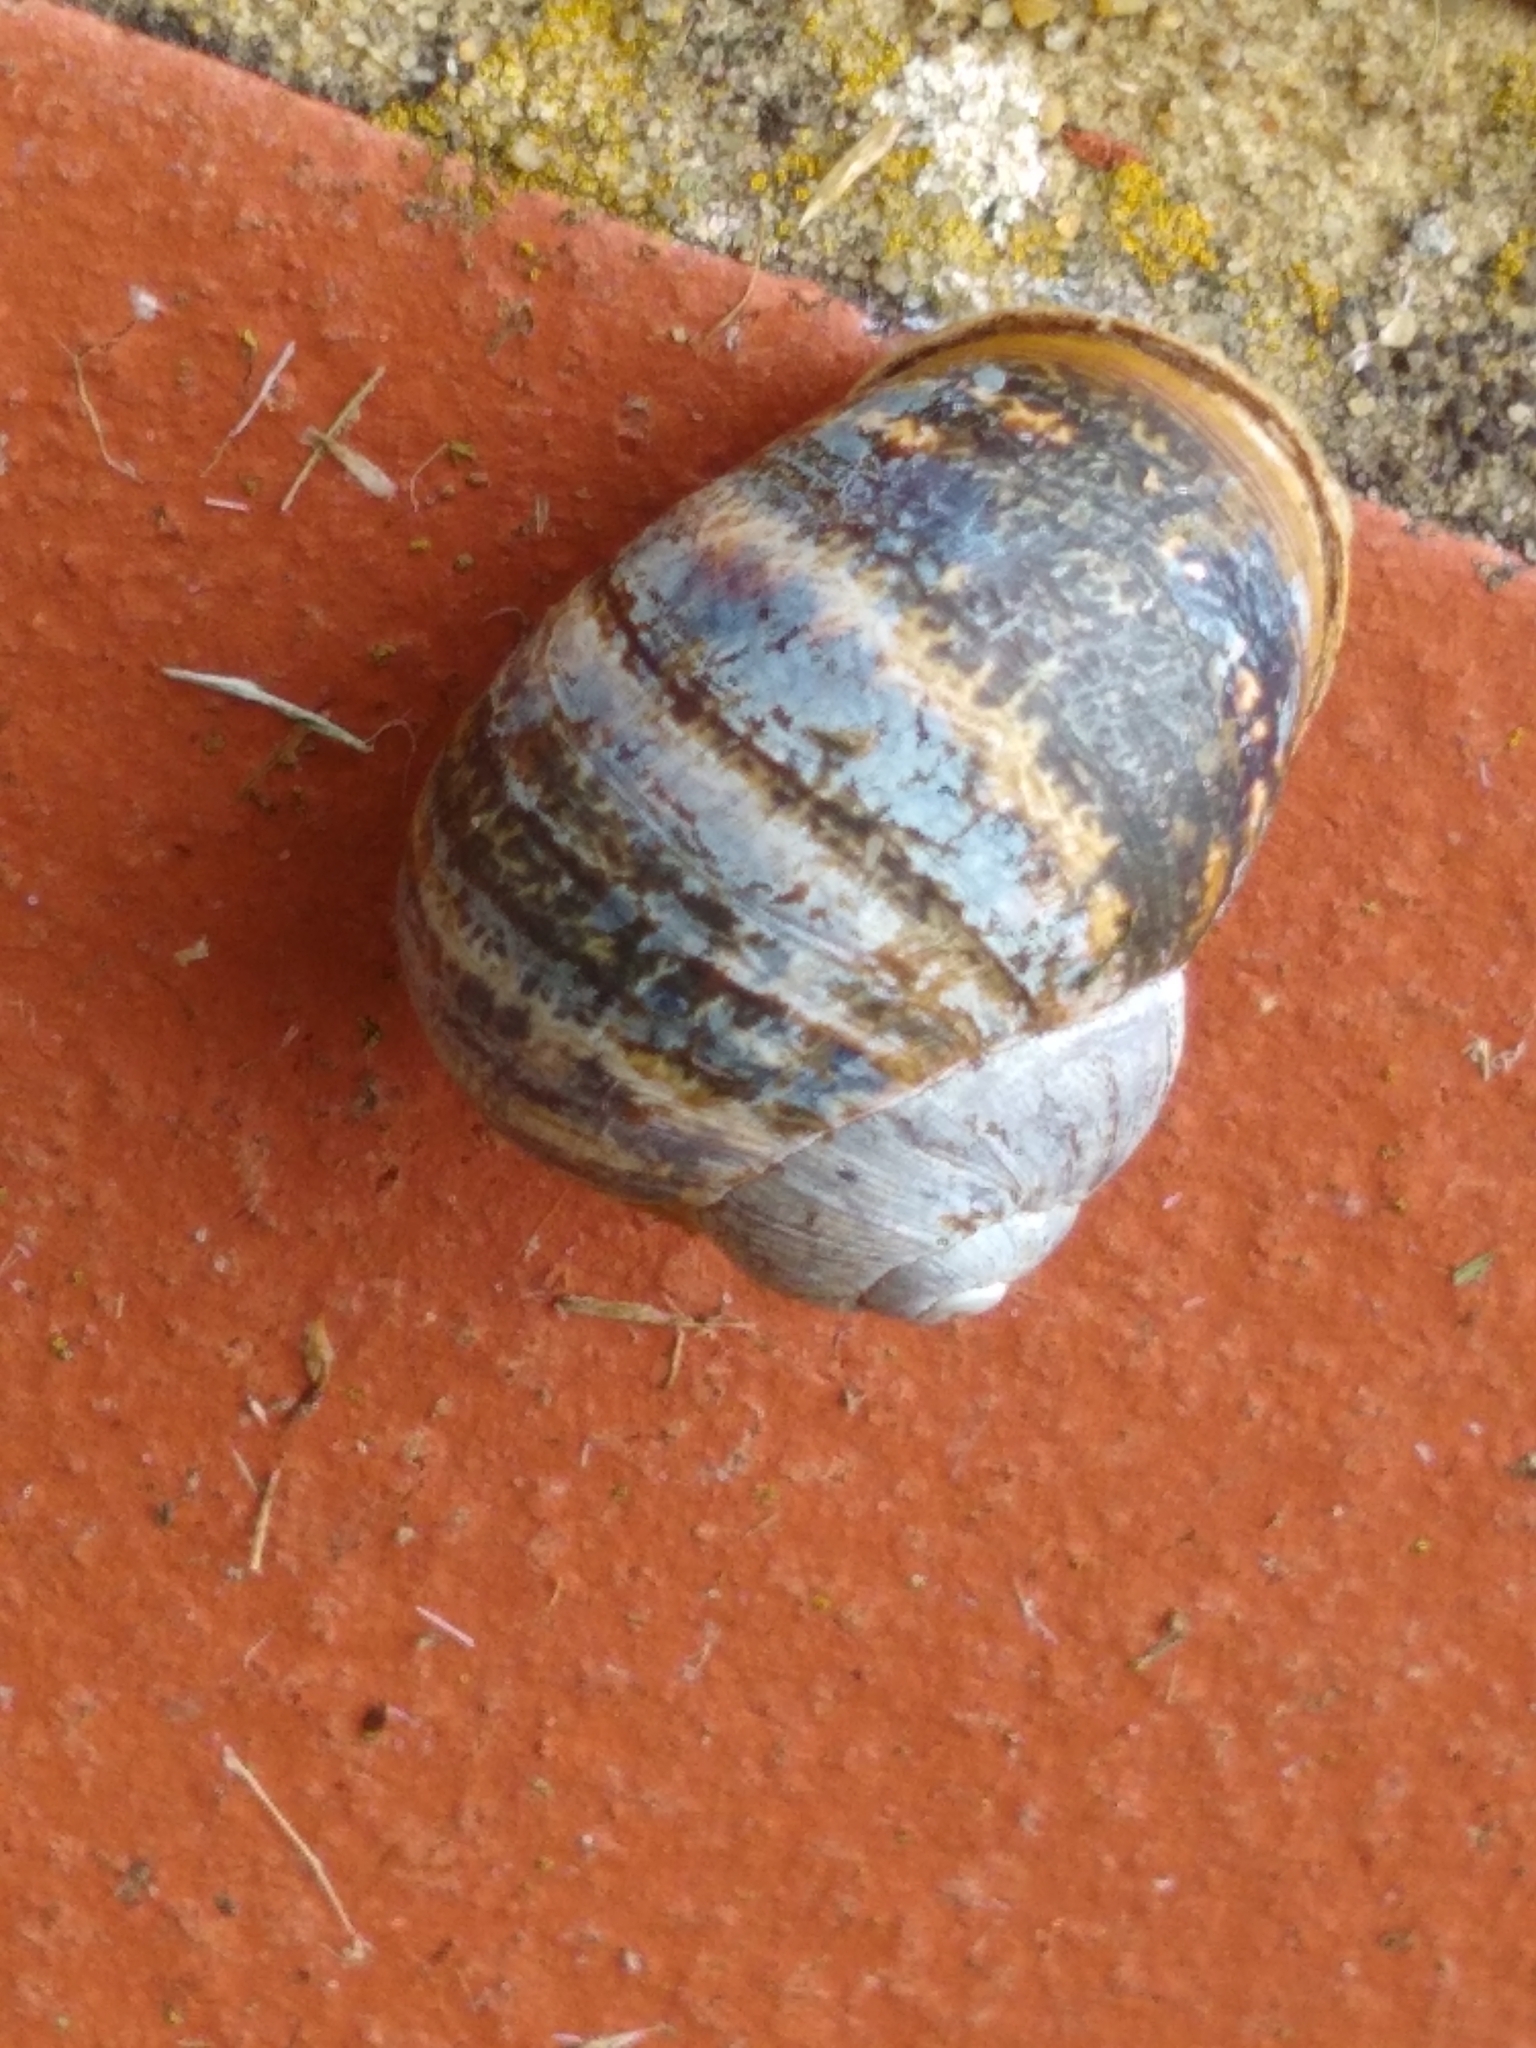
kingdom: Animalia
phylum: Mollusca
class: Gastropoda
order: Stylommatophora
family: Helicidae
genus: Cornu
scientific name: Cornu aspersum
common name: Brown garden snail
